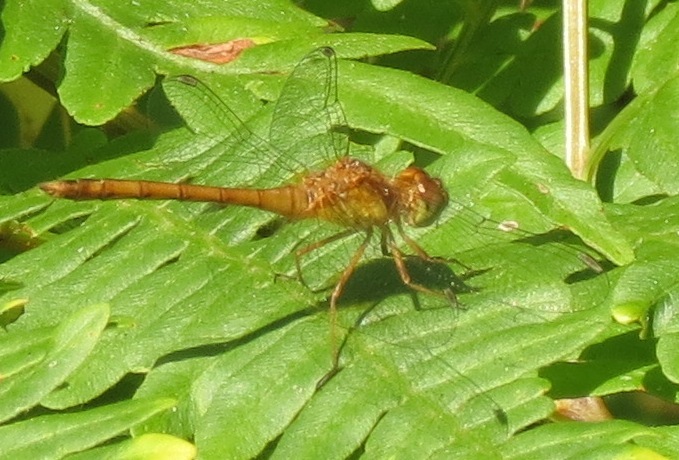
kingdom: Animalia
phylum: Arthropoda
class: Insecta
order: Odonata
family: Libellulidae
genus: Sympetrum
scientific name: Sympetrum vicinum
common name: Autumn meadowhawk
